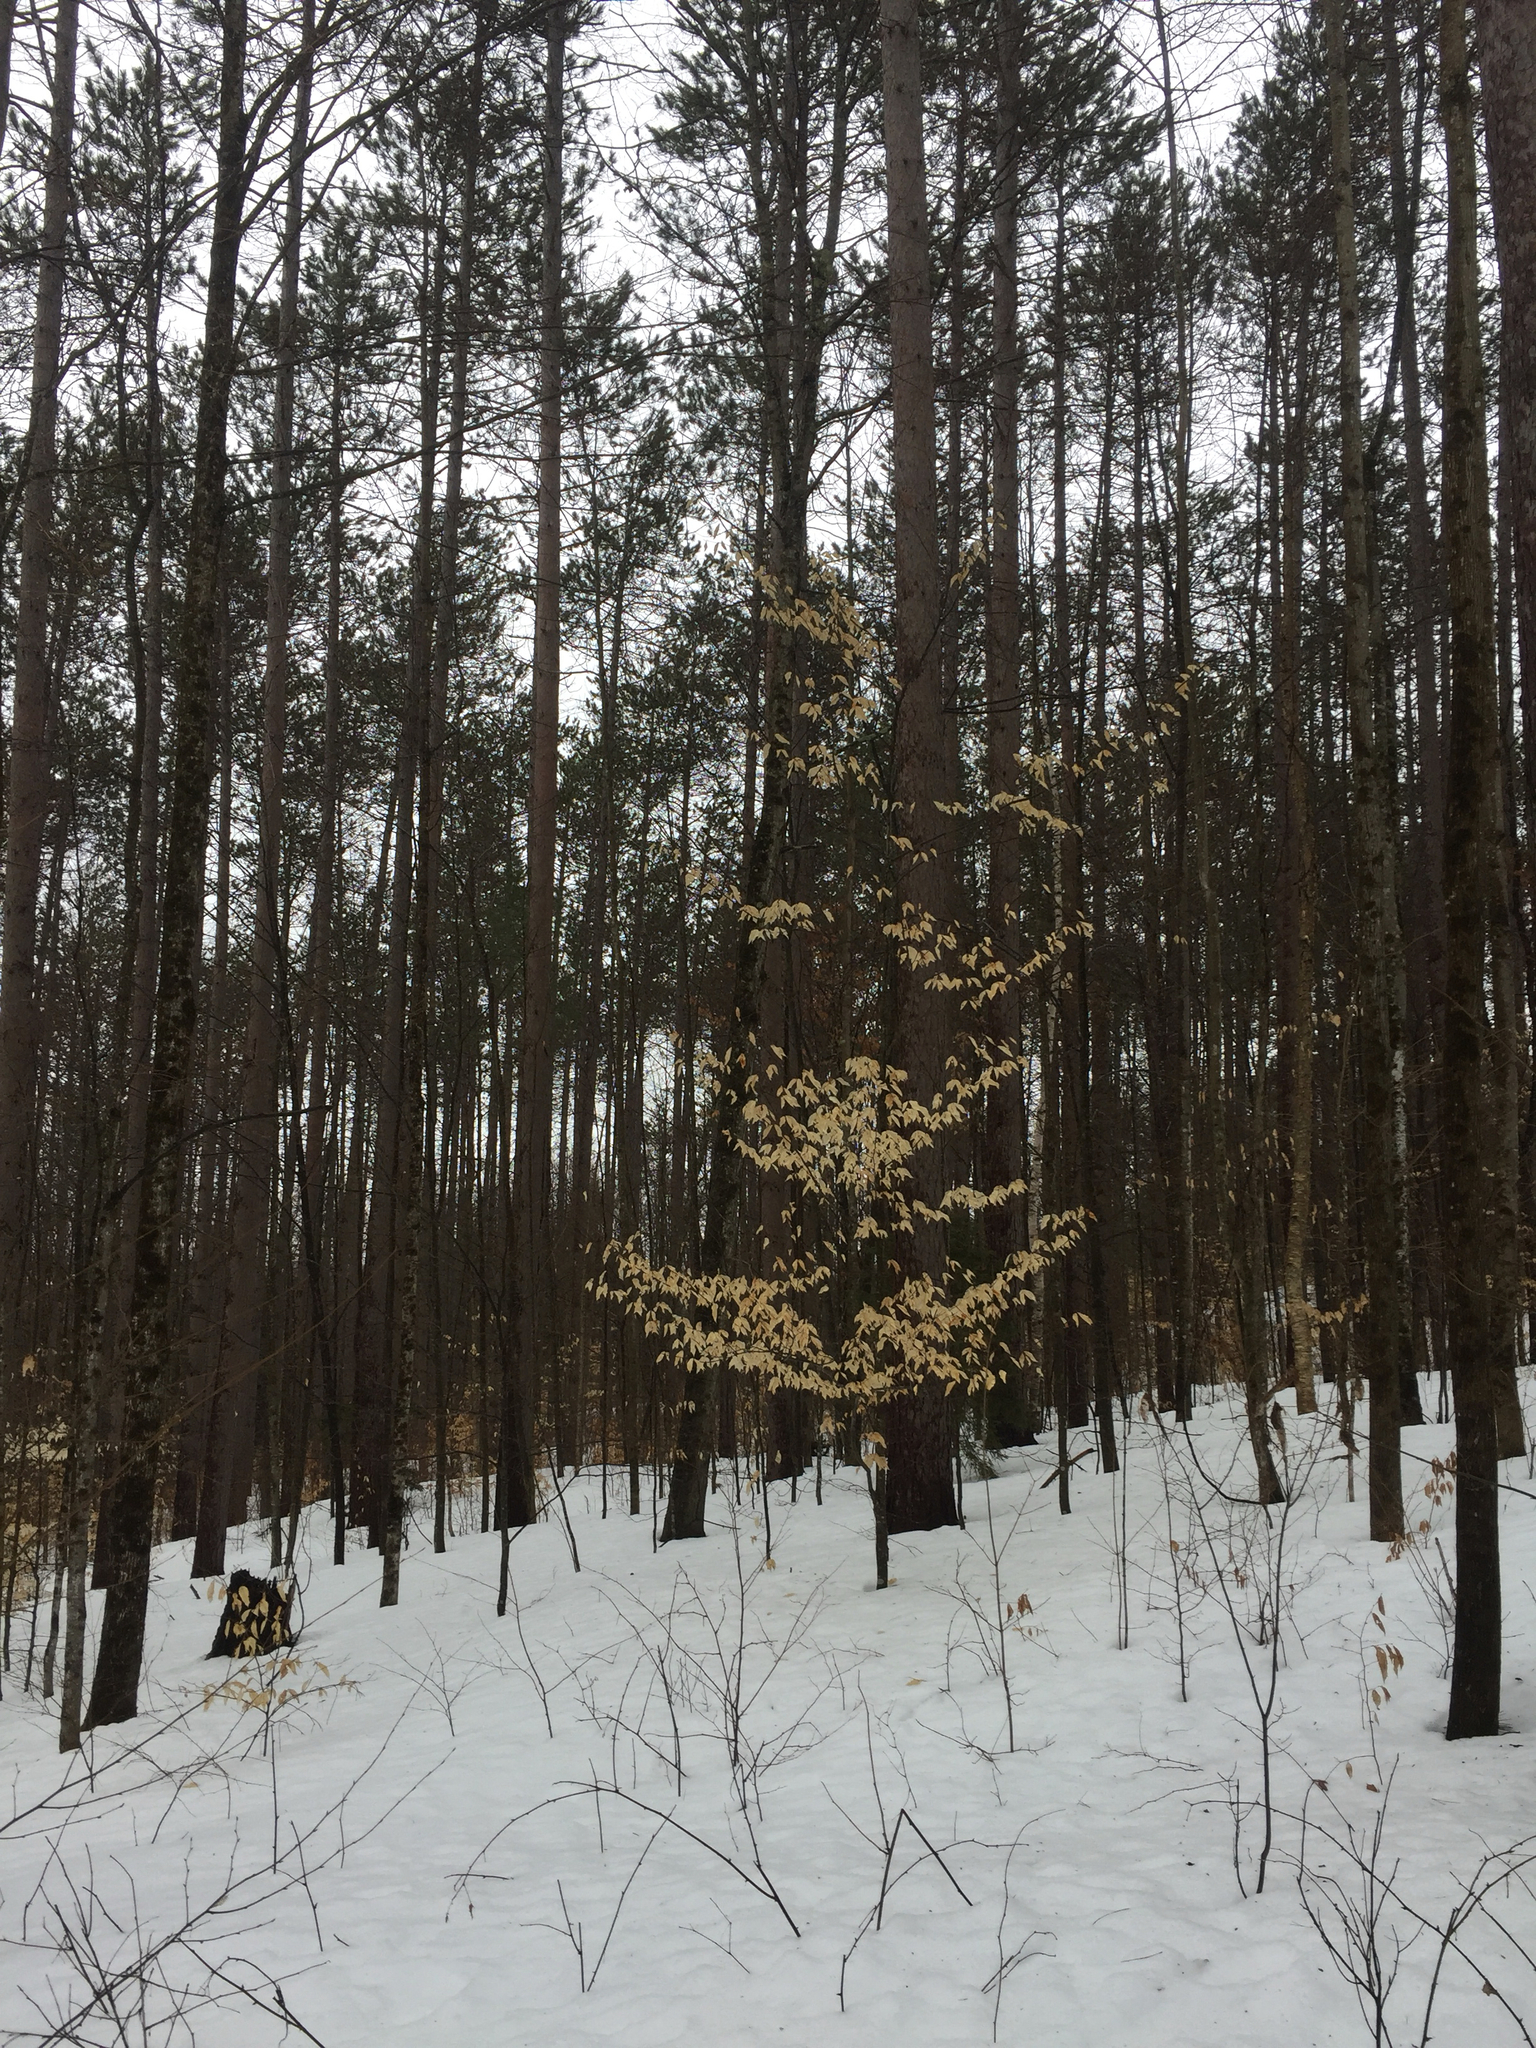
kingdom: Plantae
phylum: Tracheophyta
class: Magnoliopsida
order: Fagales
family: Fagaceae
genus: Fagus
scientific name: Fagus grandifolia
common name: American beech
